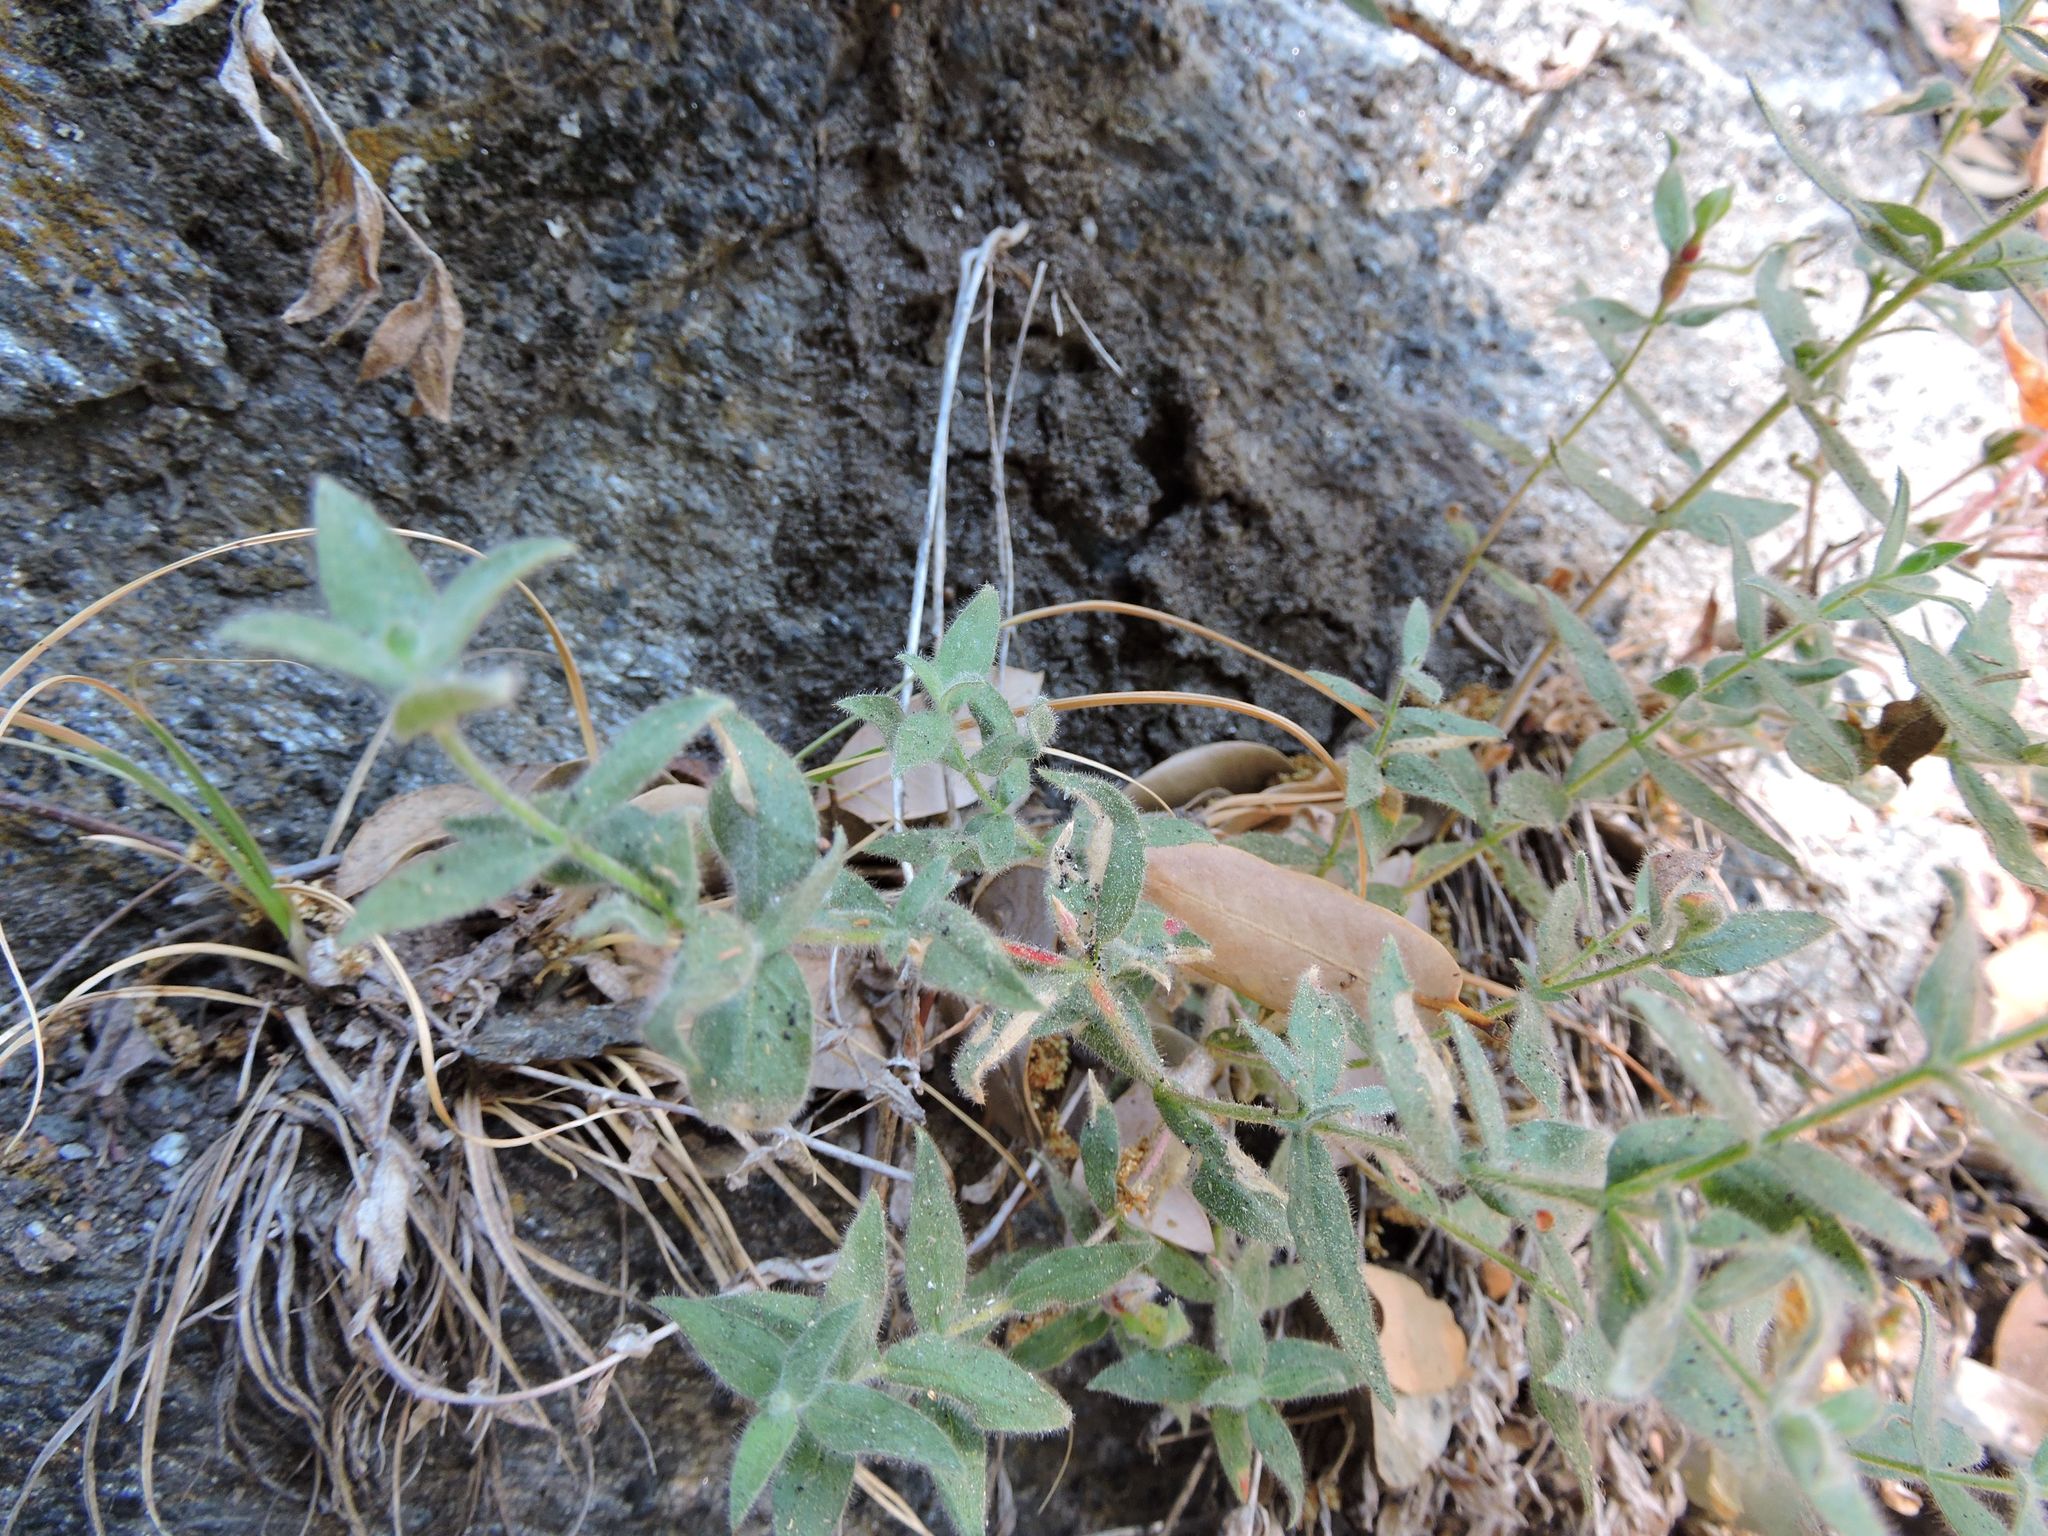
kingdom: Plantae
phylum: Tracheophyta
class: Magnoliopsida
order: Myrtales
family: Onagraceae
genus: Epilobium
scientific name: Epilobium canum
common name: California-fuchsia
